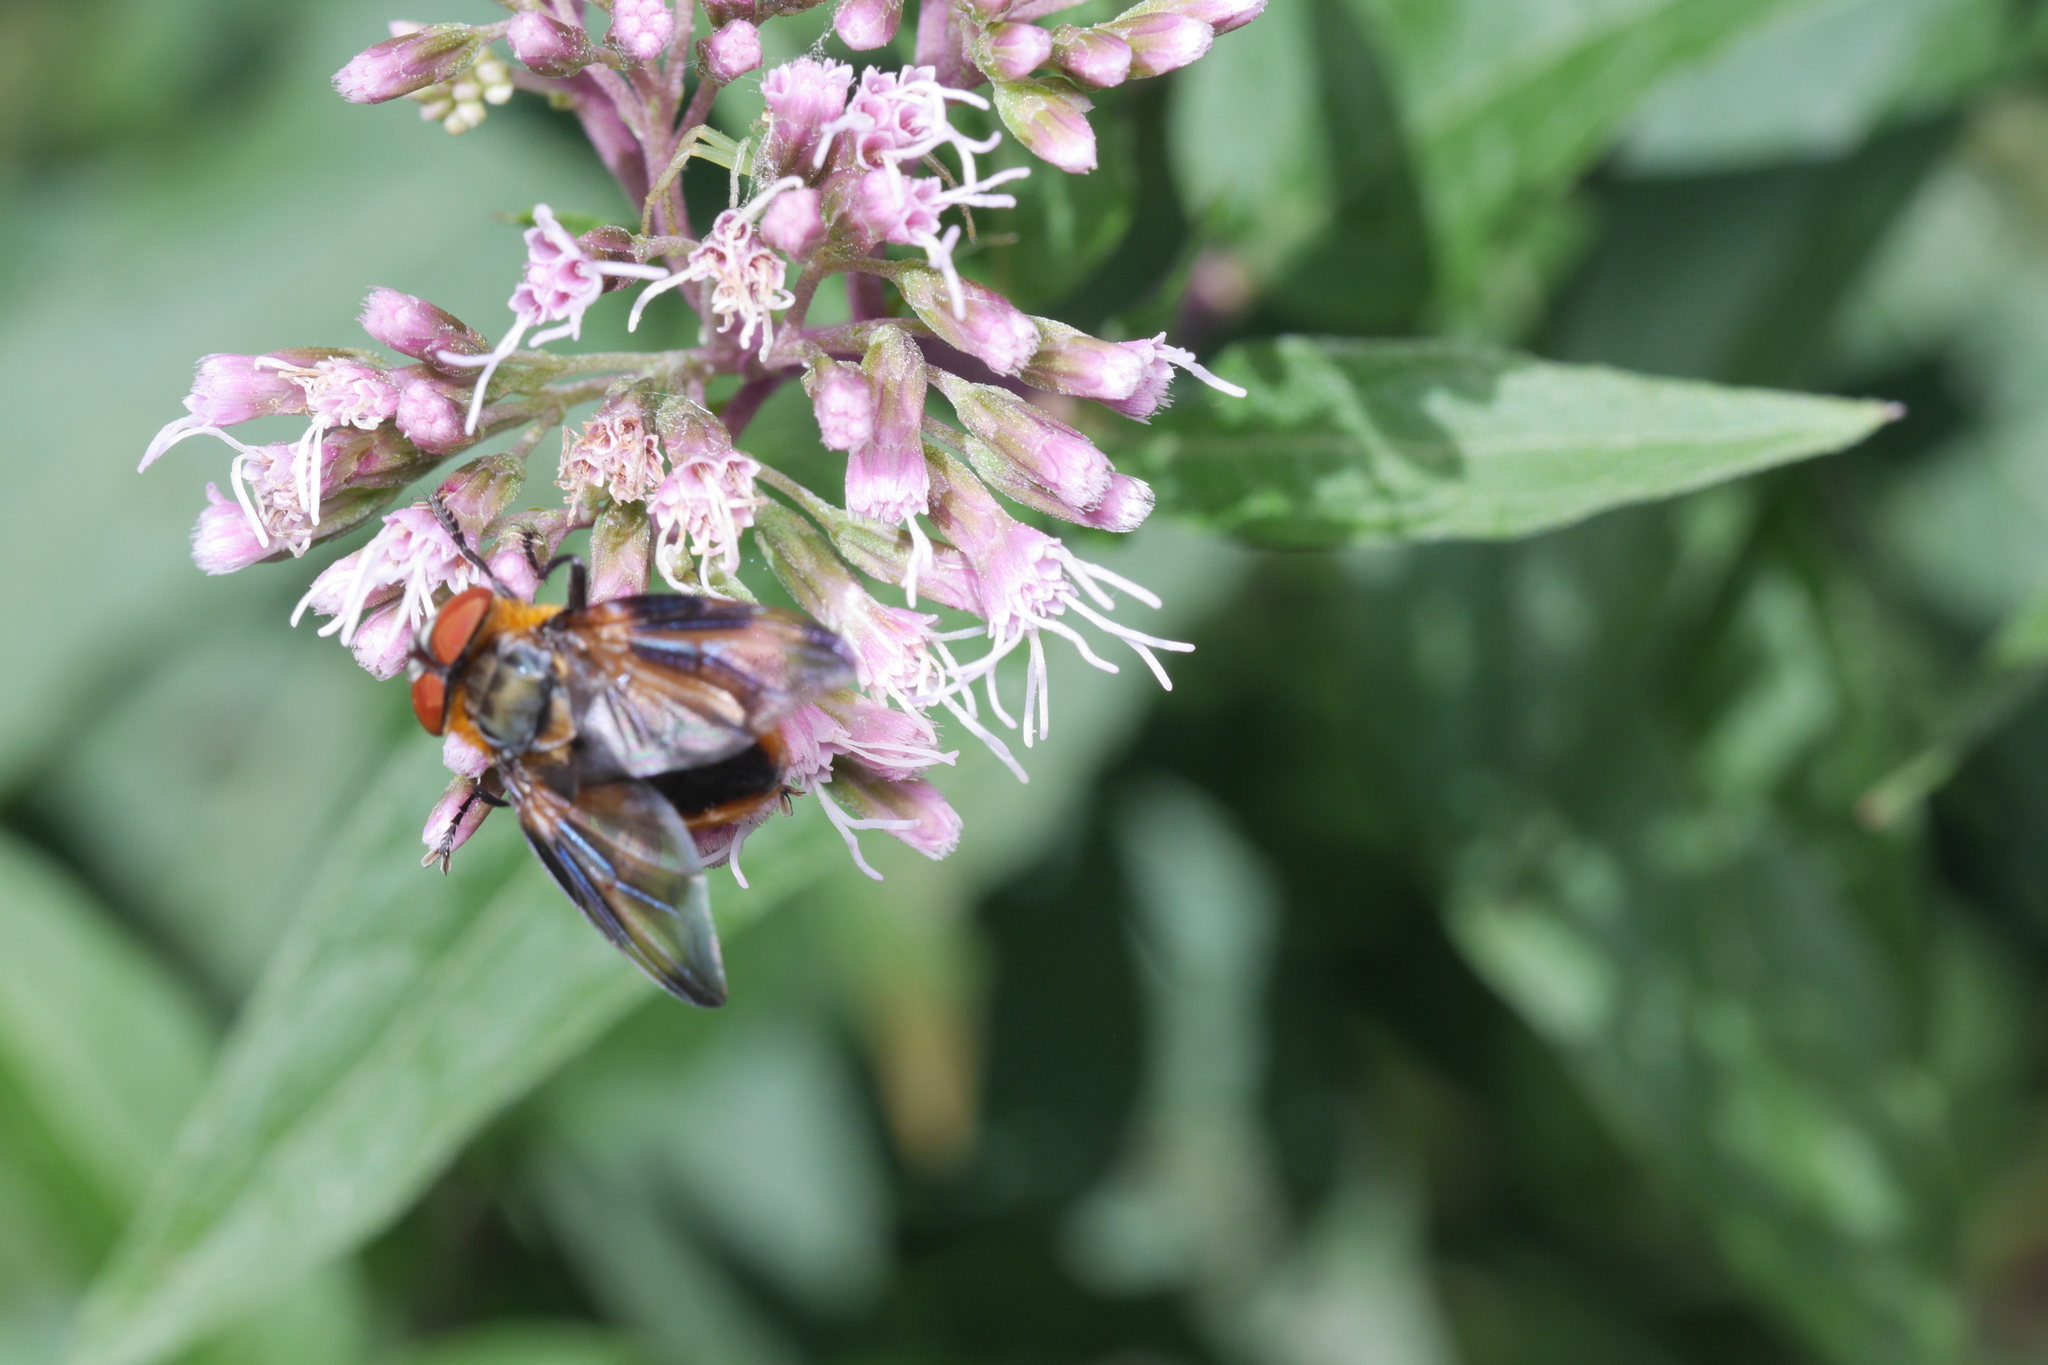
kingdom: Animalia
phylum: Arthropoda
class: Insecta
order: Diptera
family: Tachinidae
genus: Phasia
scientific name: Phasia hemiptera
